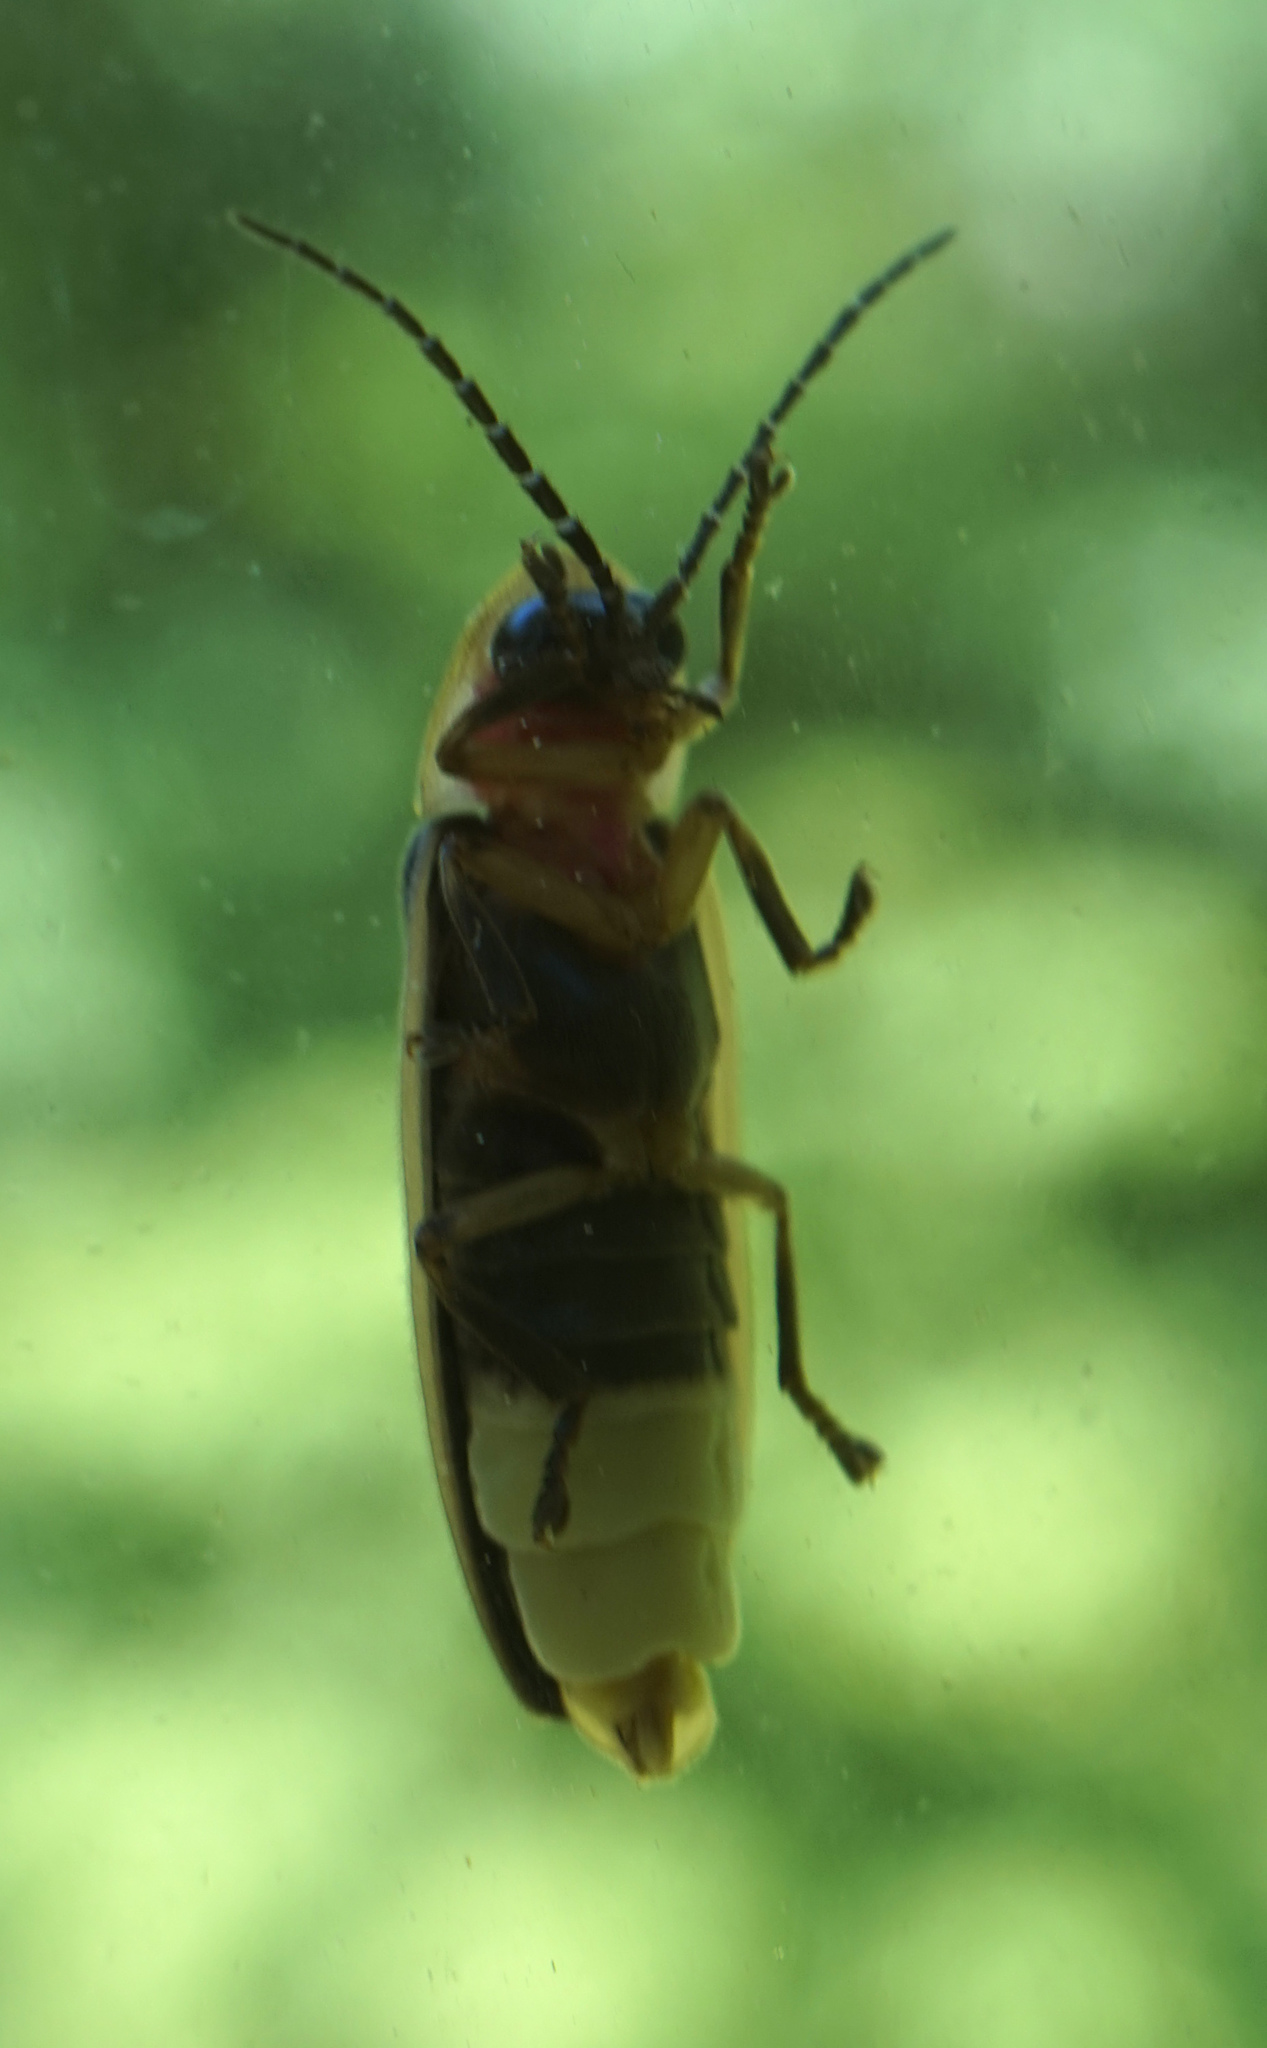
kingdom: Animalia
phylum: Arthropoda
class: Insecta
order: Coleoptera
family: Lampyridae
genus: Photinus
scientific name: Photinus pyralis
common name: Big dipper firefly
